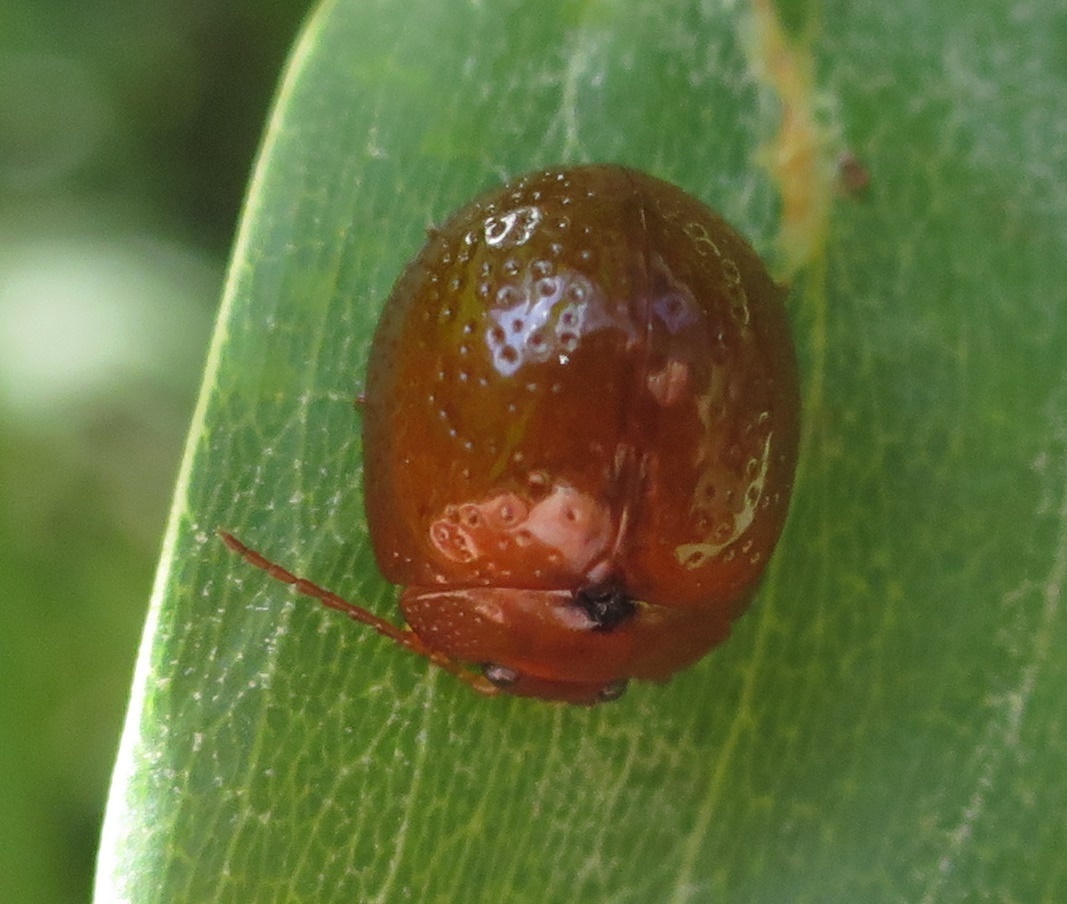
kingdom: Animalia
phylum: Arthropoda
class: Insecta
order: Coleoptera
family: Chrysomelidae
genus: Dicranosterna
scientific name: Dicranosterna
